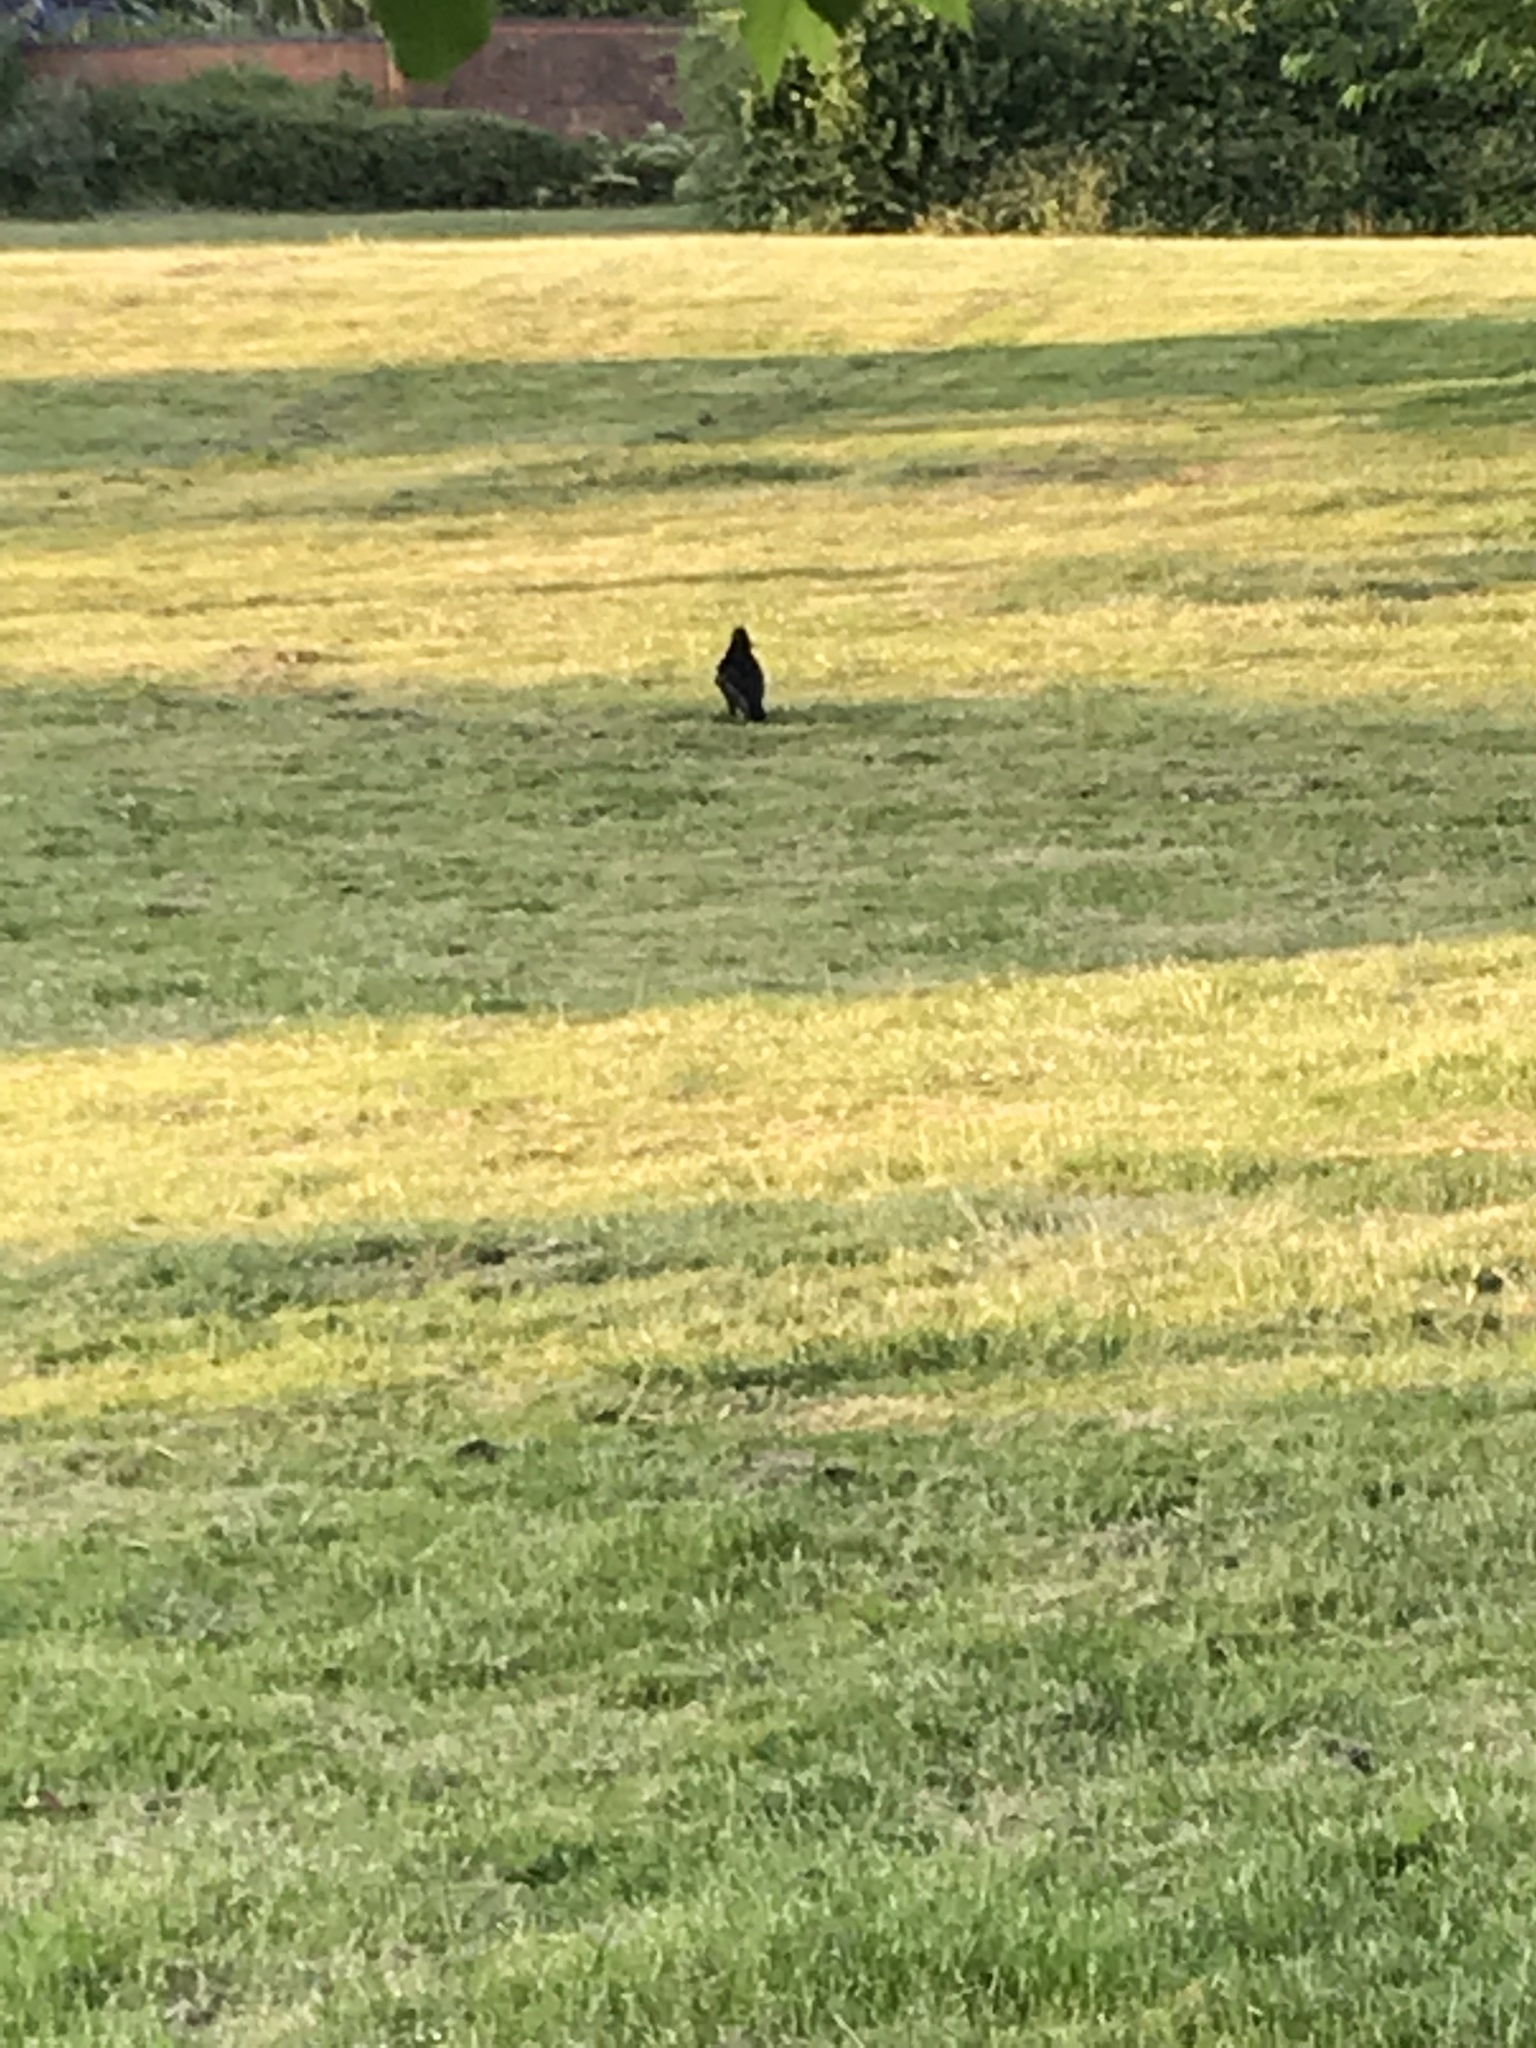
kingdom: Animalia
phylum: Chordata
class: Aves
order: Passeriformes
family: Corvidae
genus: Corvus
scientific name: Corvus corone
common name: Carrion crow
